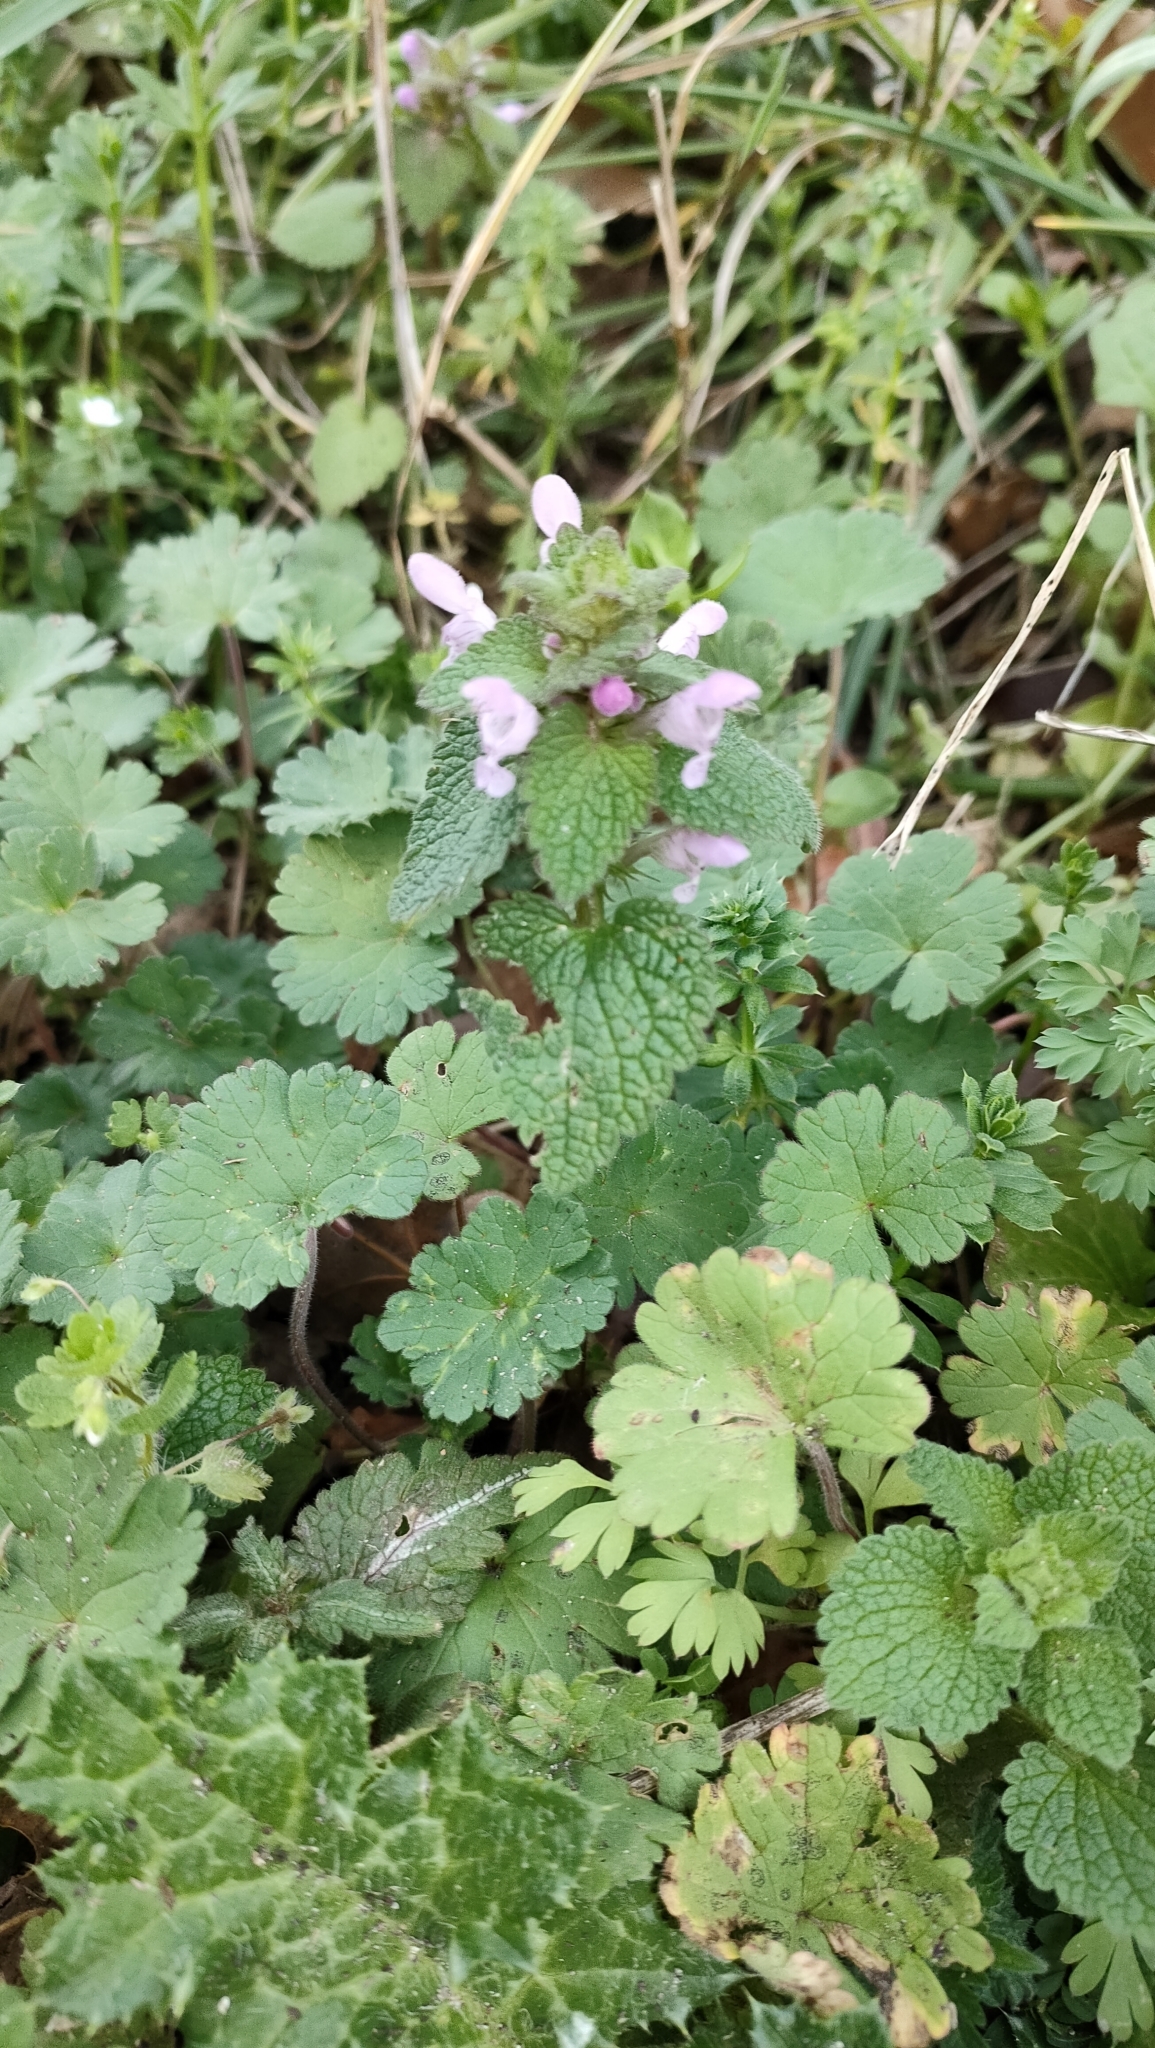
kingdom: Plantae
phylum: Tracheophyta
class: Magnoliopsida
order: Lamiales
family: Lamiaceae
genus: Lamium
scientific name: Lamium purpureum
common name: Red dead-nettle
